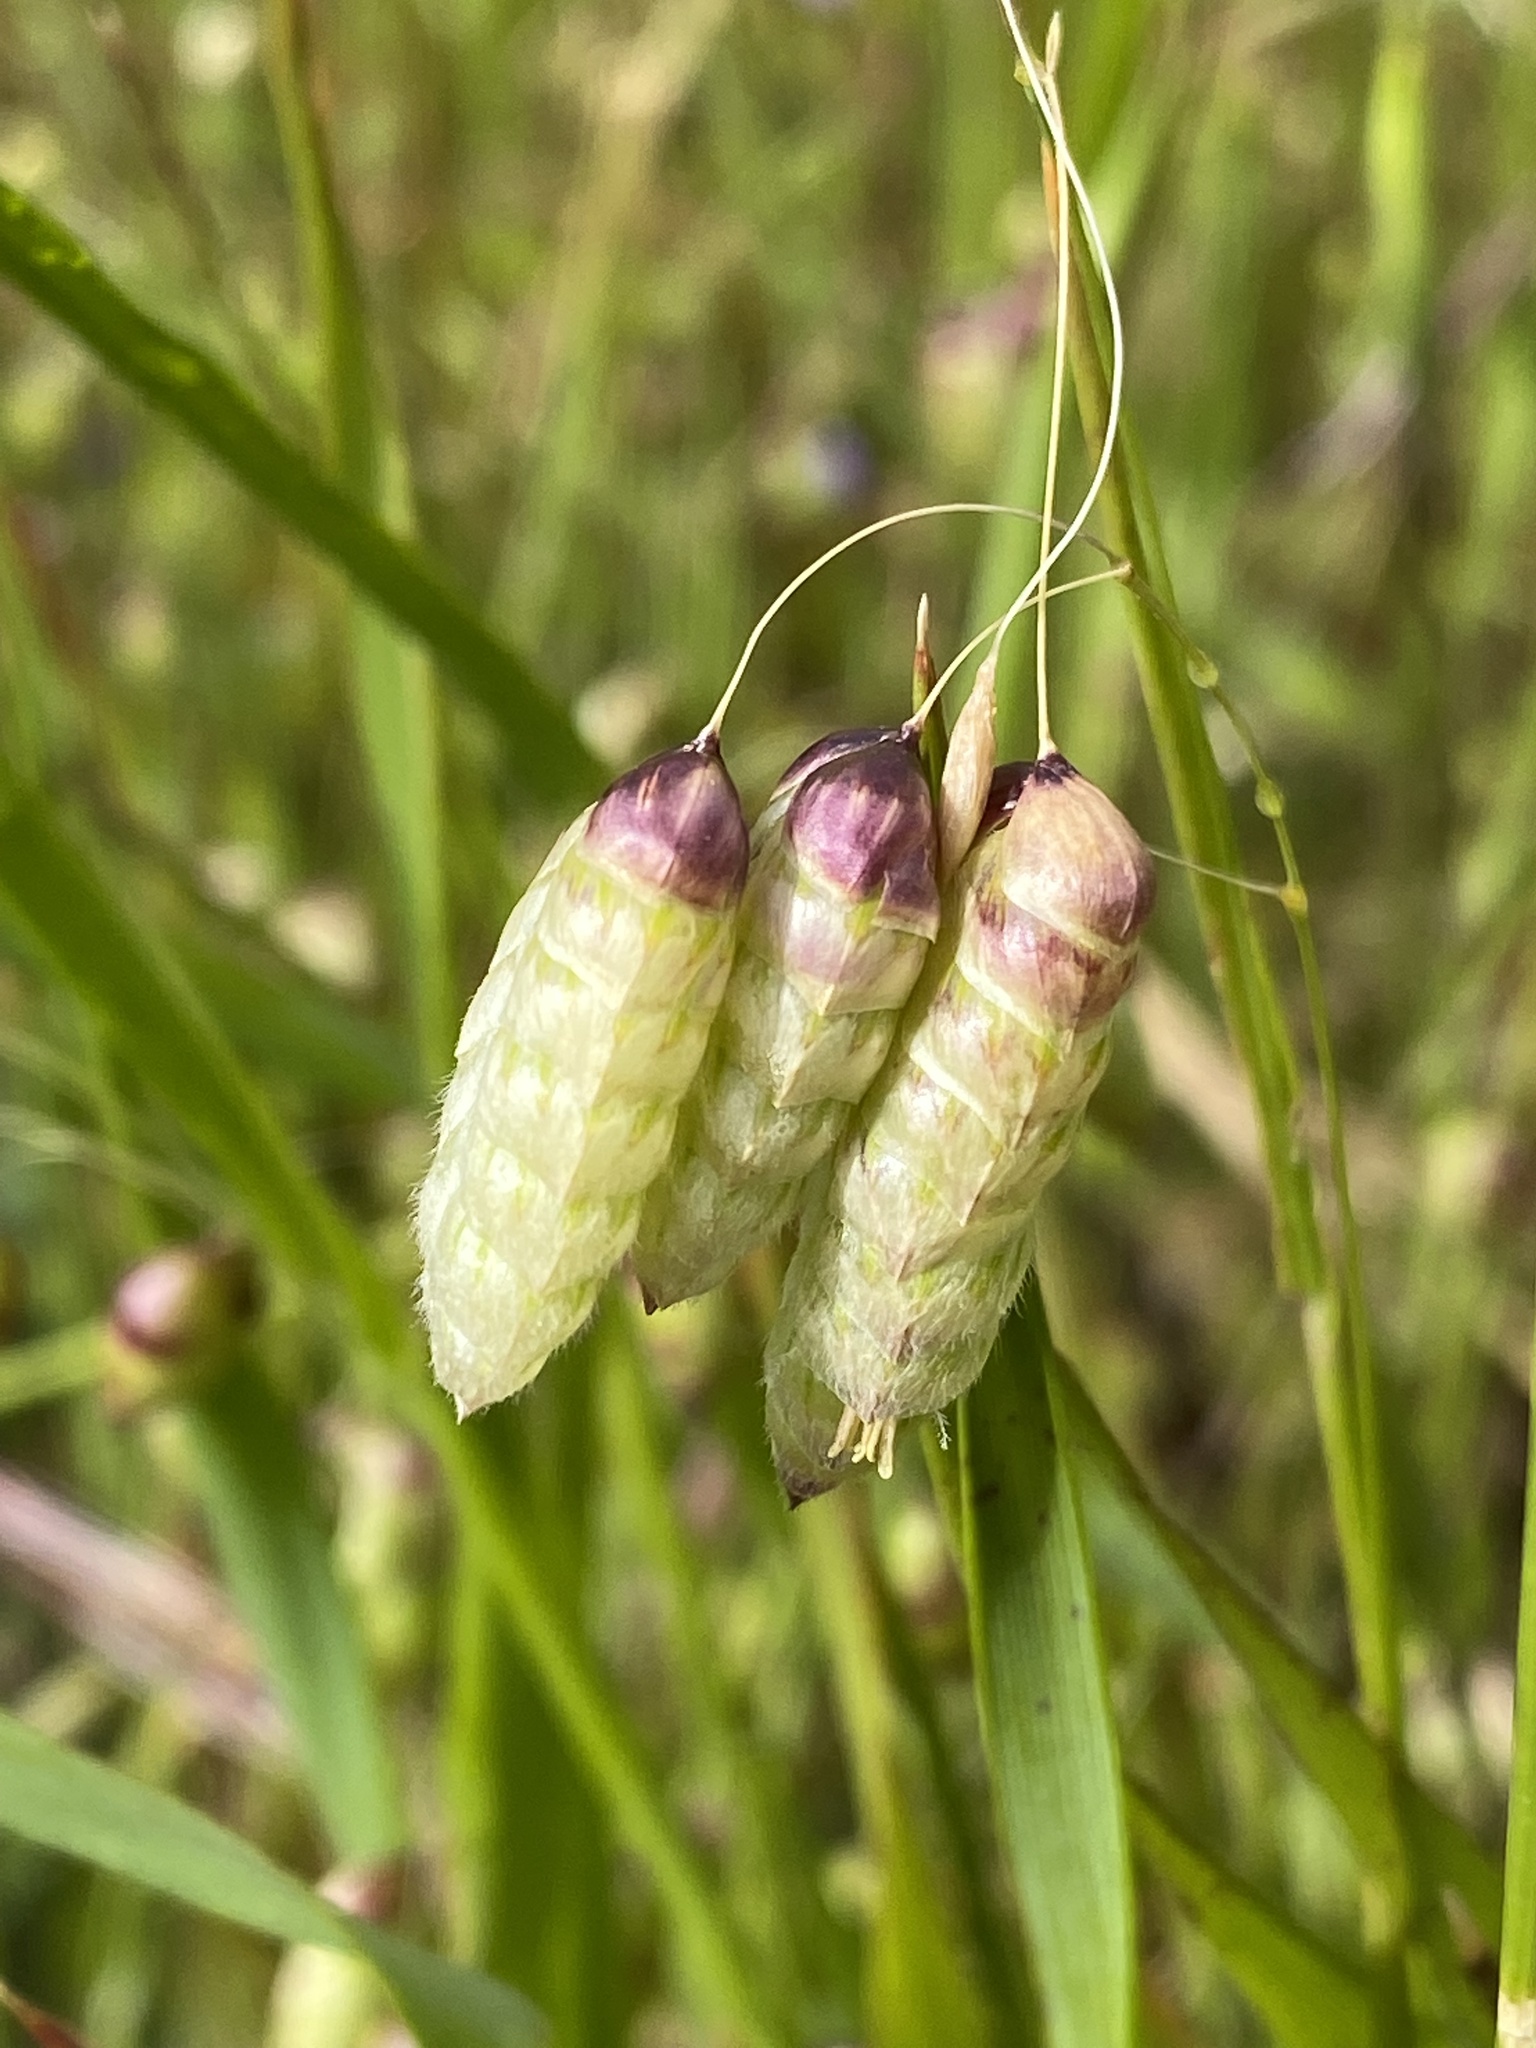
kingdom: Plantae
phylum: Tracheophyta
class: Liliopsida
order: Poales
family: Poaceae
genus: Briza
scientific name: Briza maxima
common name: Big quakinggrass
